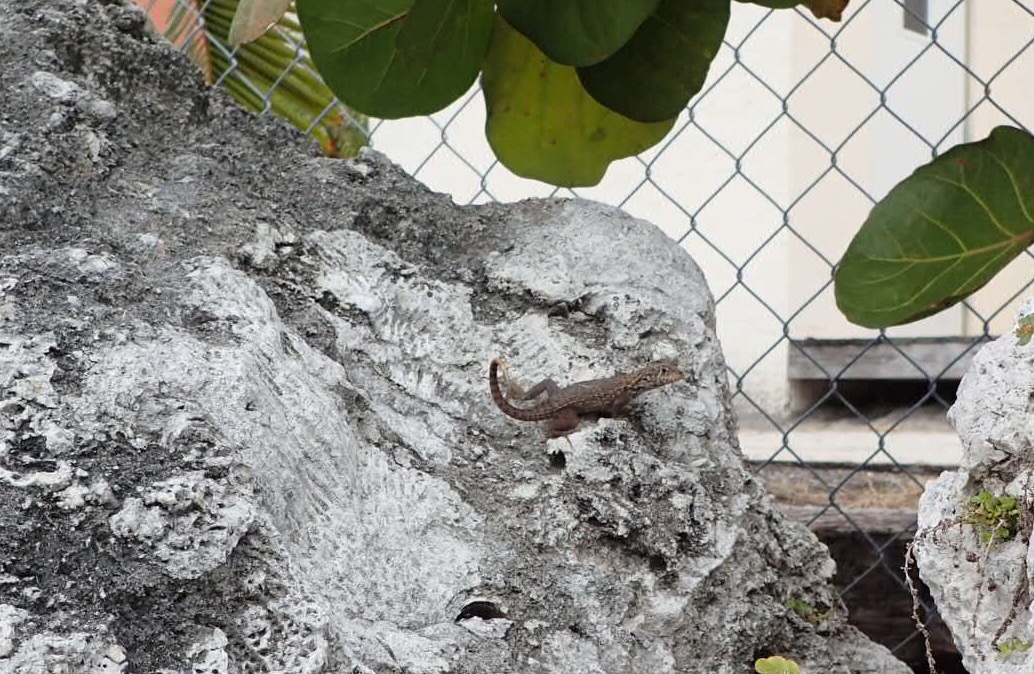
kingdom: Animalia
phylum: Chordata
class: Squamata
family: Leiocephalidae
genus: Leiocephalus
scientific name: Leiocephalus carinatus
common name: Northern curly-tailed lizard
